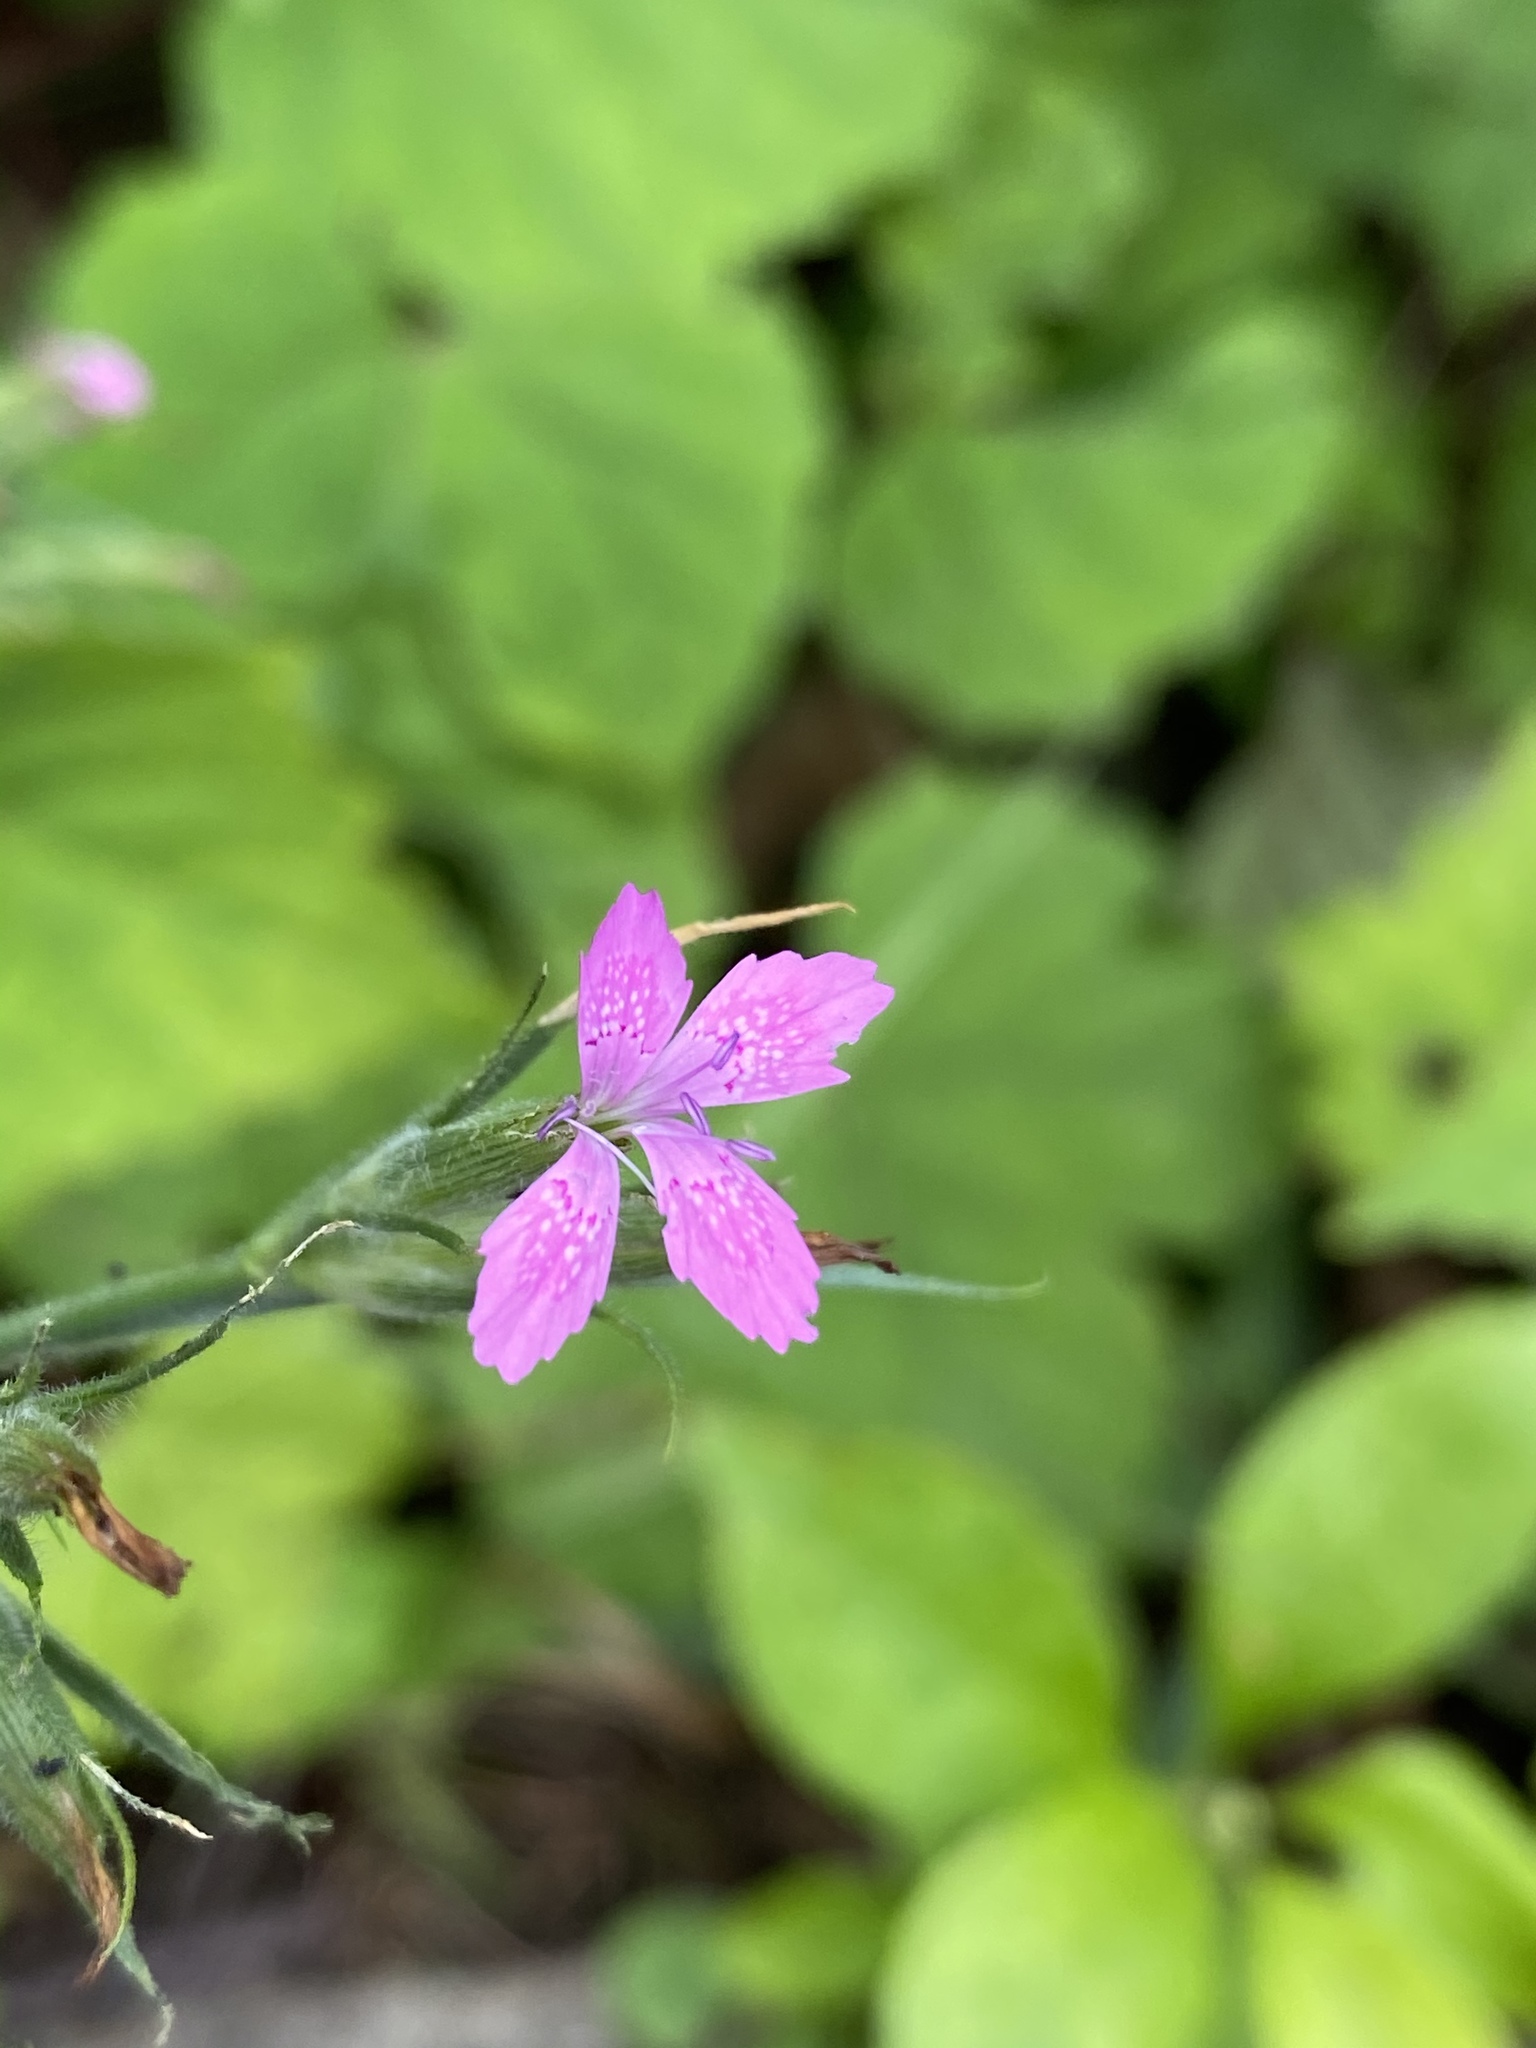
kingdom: Plantae
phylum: Tracheophyta
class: Magnoliopsida
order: Caryophyllales
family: Caryophyllaceae
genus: Dianthus
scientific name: Dianthus armeria
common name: Deptford pink
